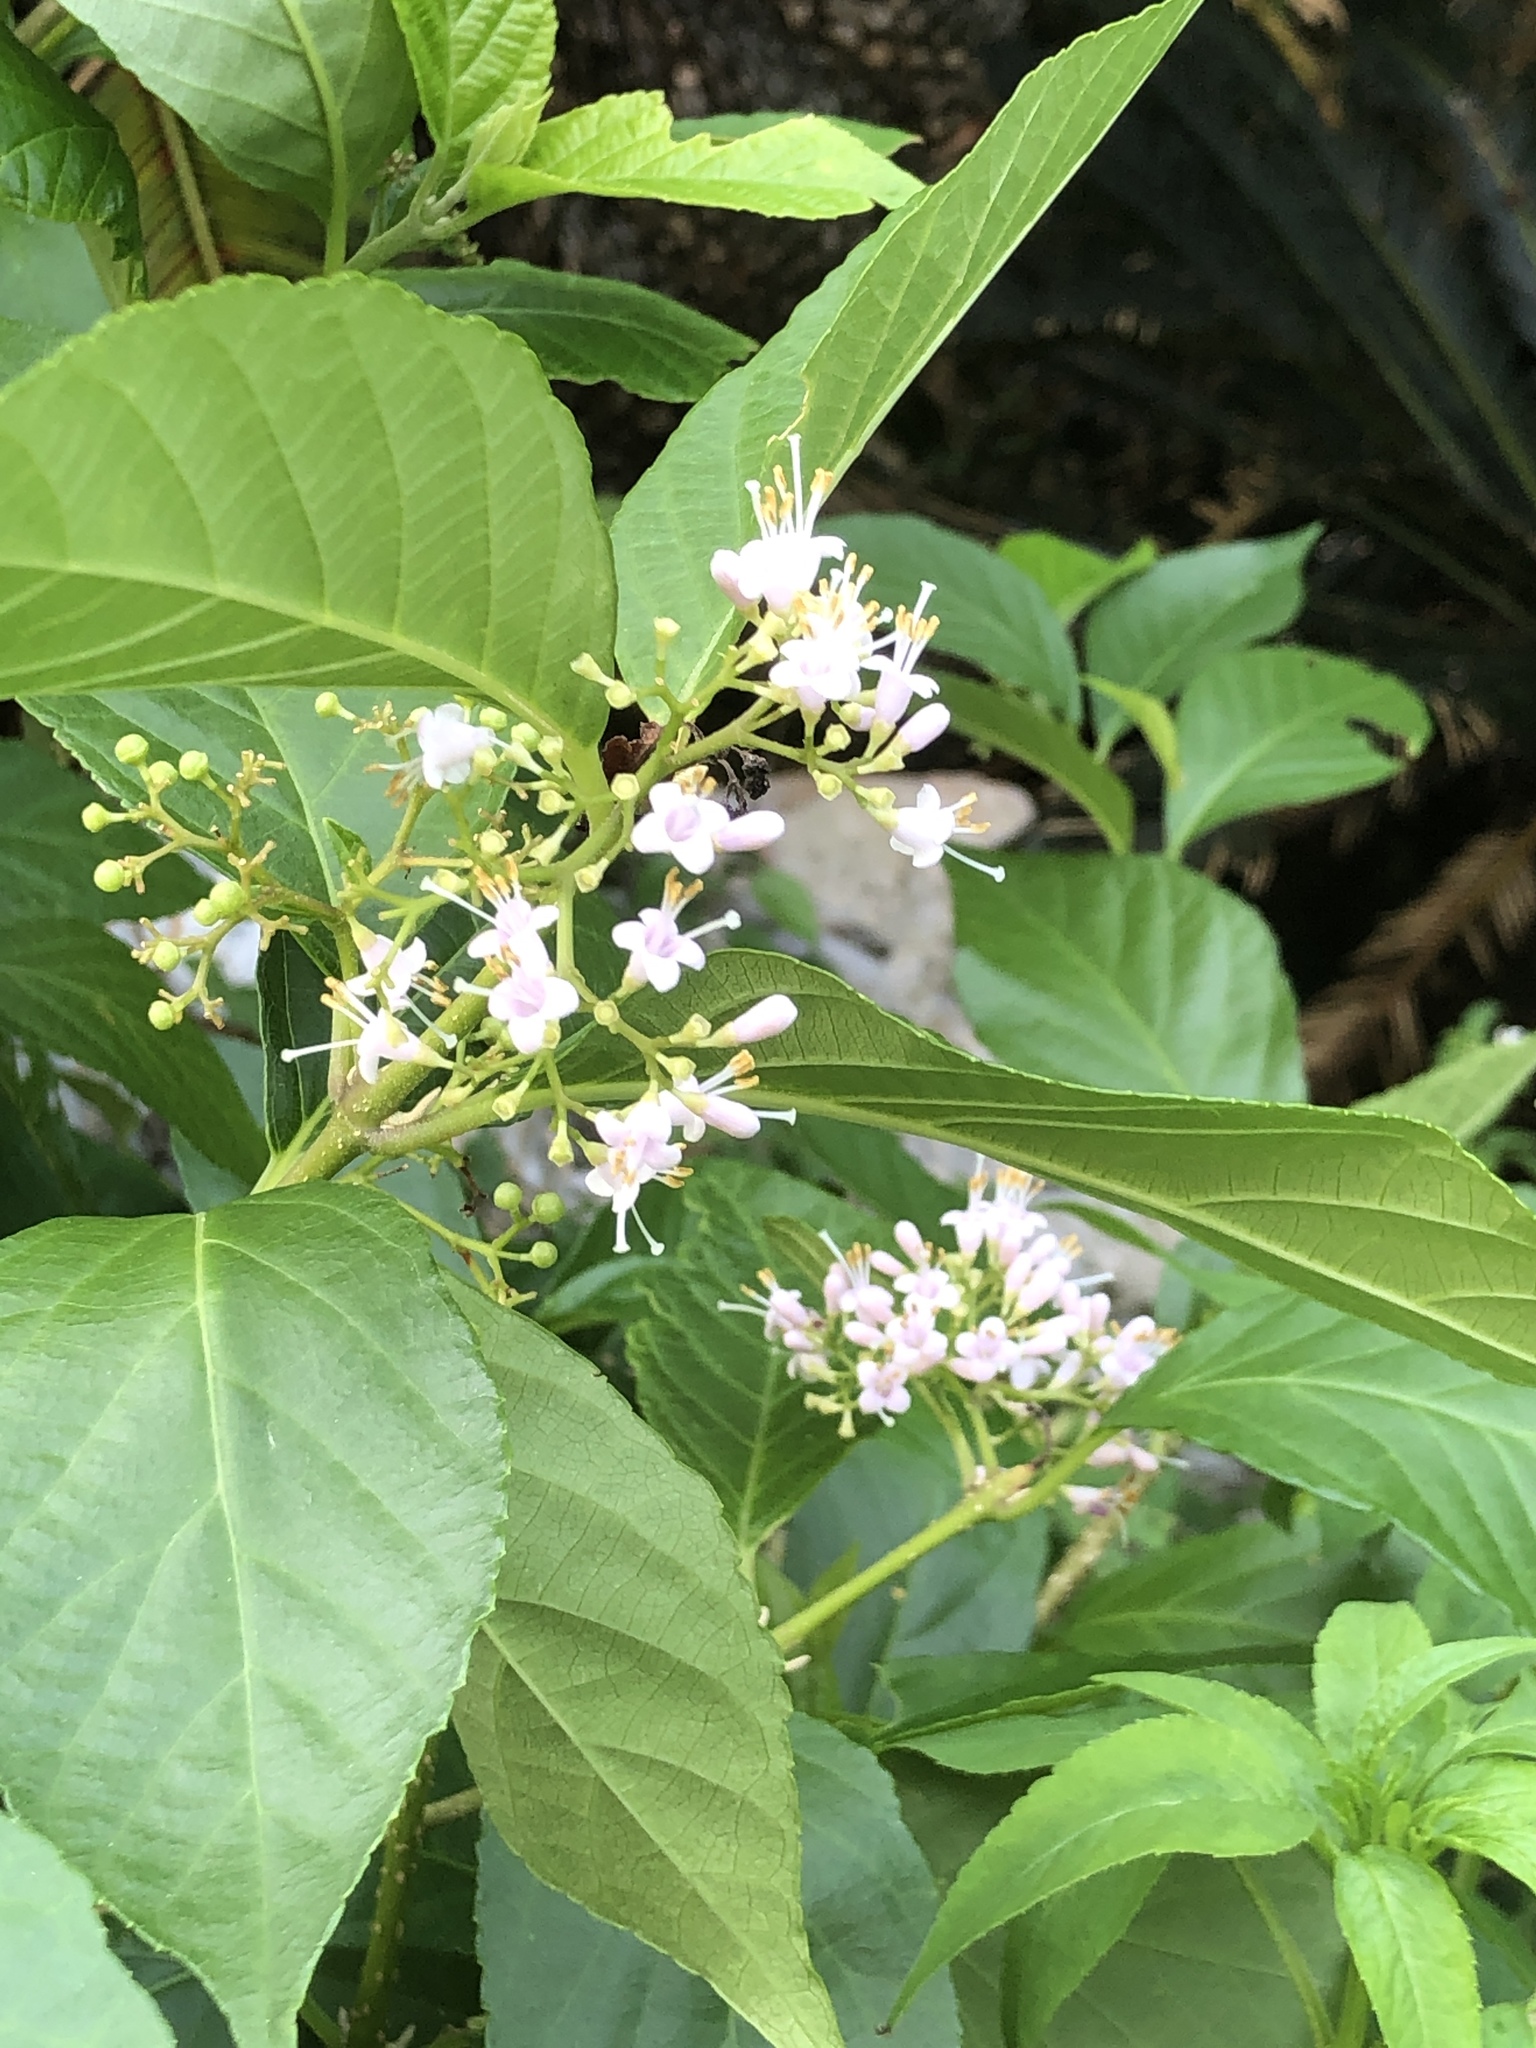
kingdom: Plantae
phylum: Tracheophyta
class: Magnoliopsida
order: Lamiales
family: Lamiaceae
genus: Callicarpa
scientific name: Callicarpa japonica
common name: Japanese beauty-berry
